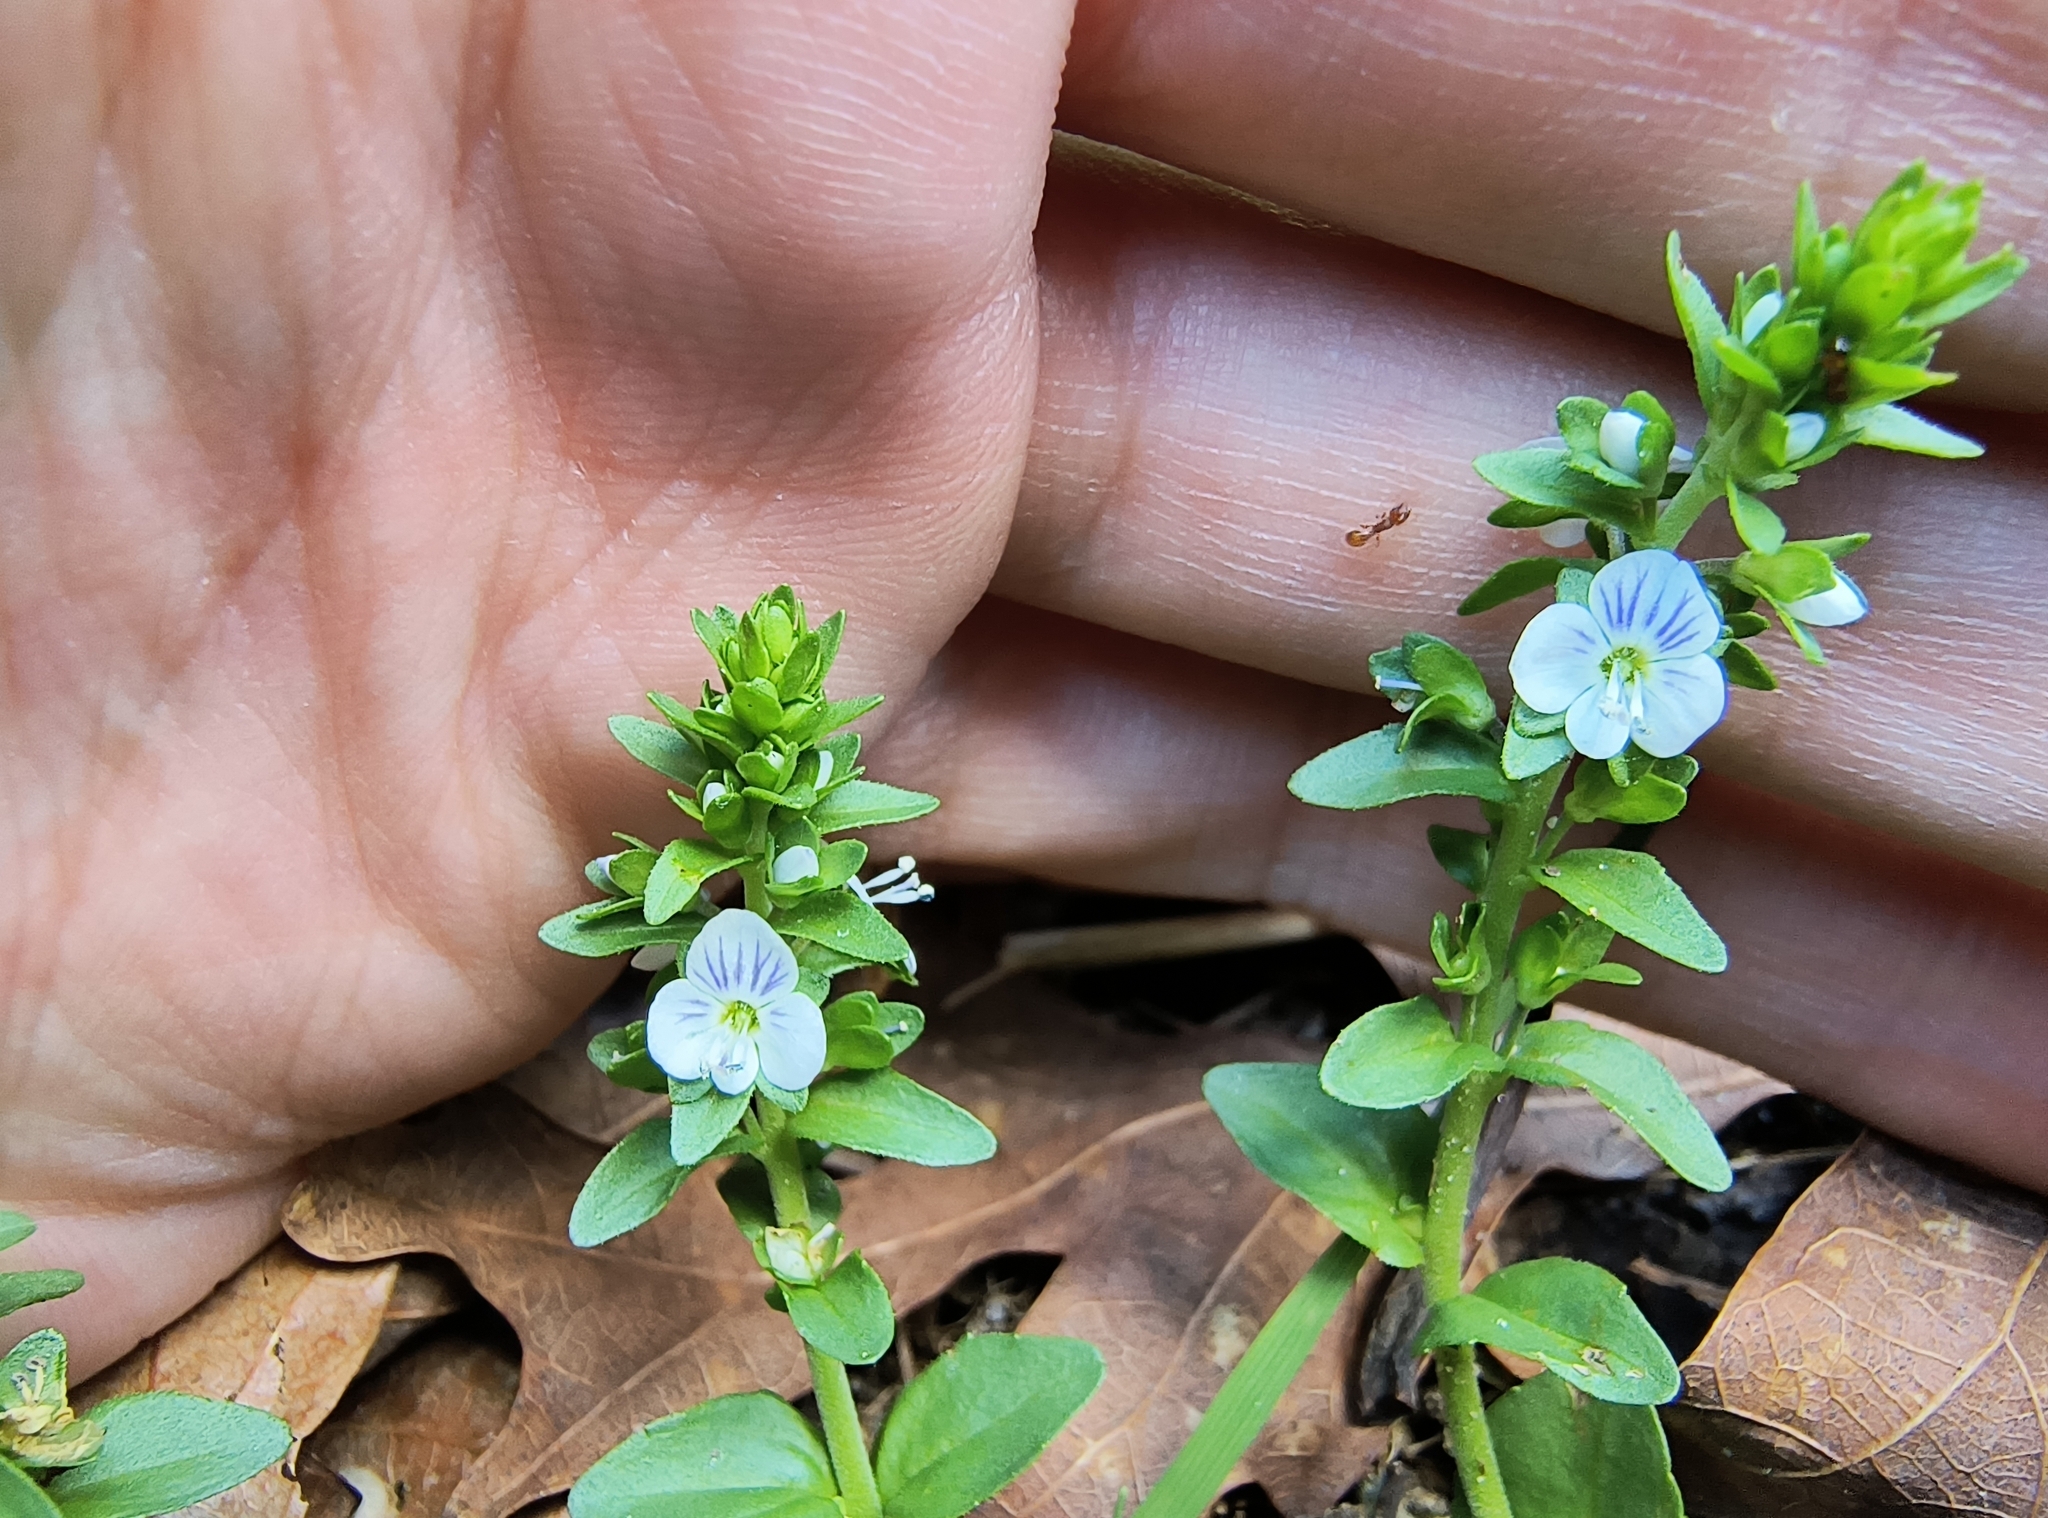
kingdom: Plantae
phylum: Tracheophyta
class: Magnoliopsida
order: Lamiales
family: Plantaginaceae
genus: Veronica
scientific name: Veronica serpyllifolia
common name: Thyme-leaved speedwell
